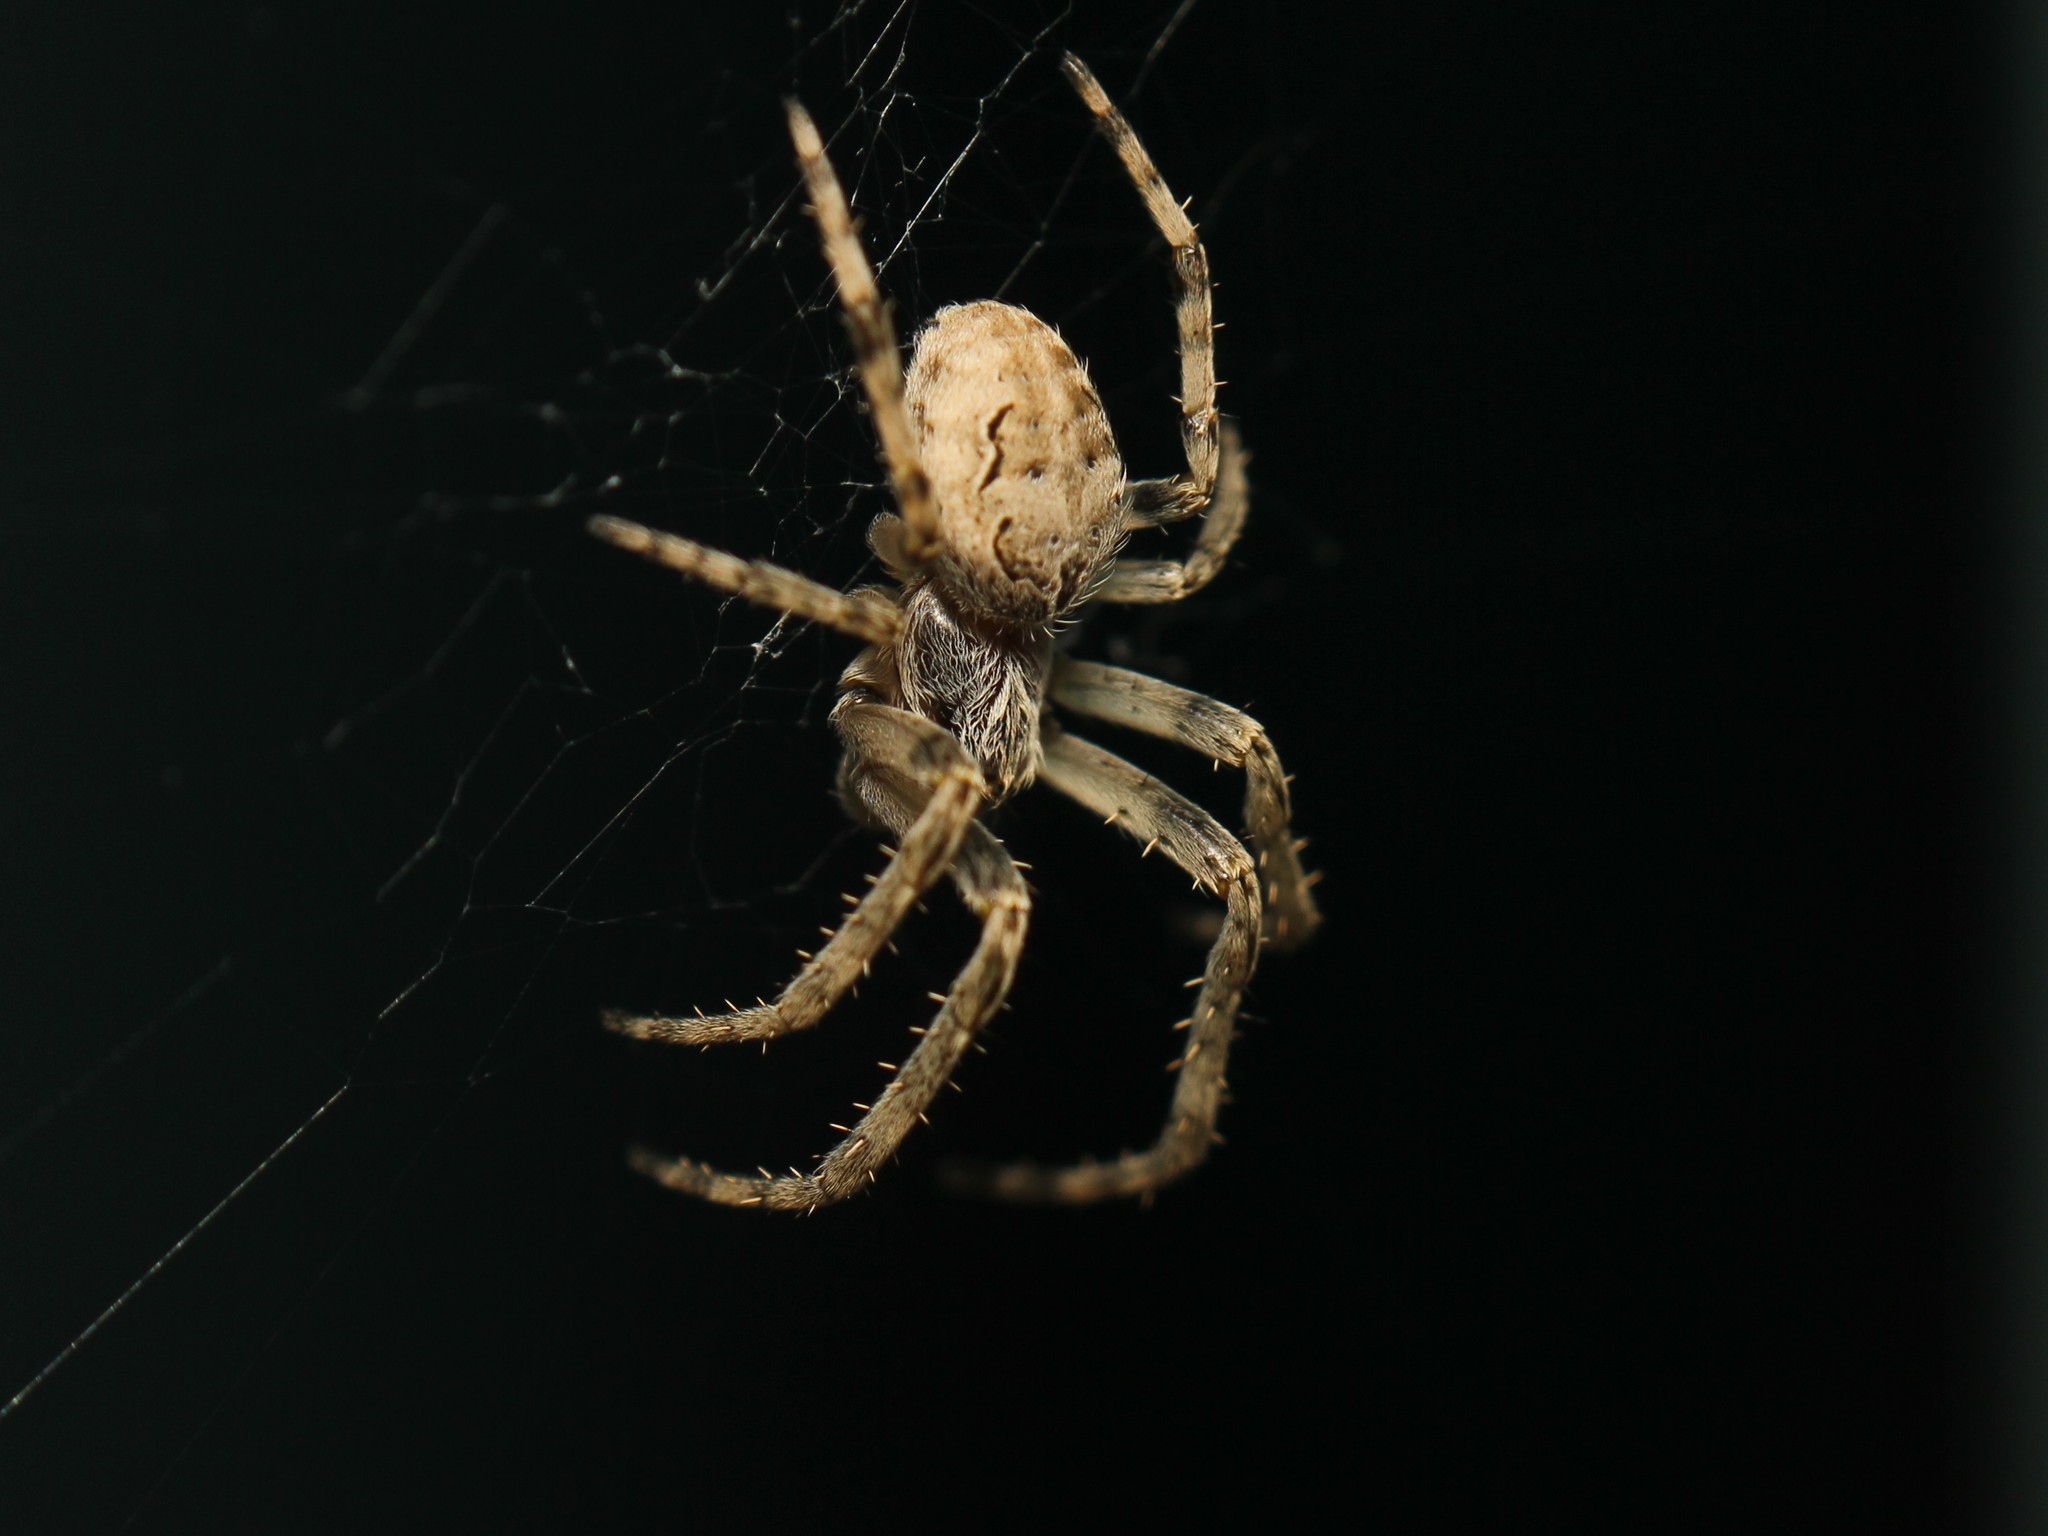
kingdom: Animalia
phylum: Arthropoda
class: Arachnida
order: Araneae
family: Araneidae
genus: Larinioides
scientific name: Larinioides sclopetarius
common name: Bridge orbweaver
